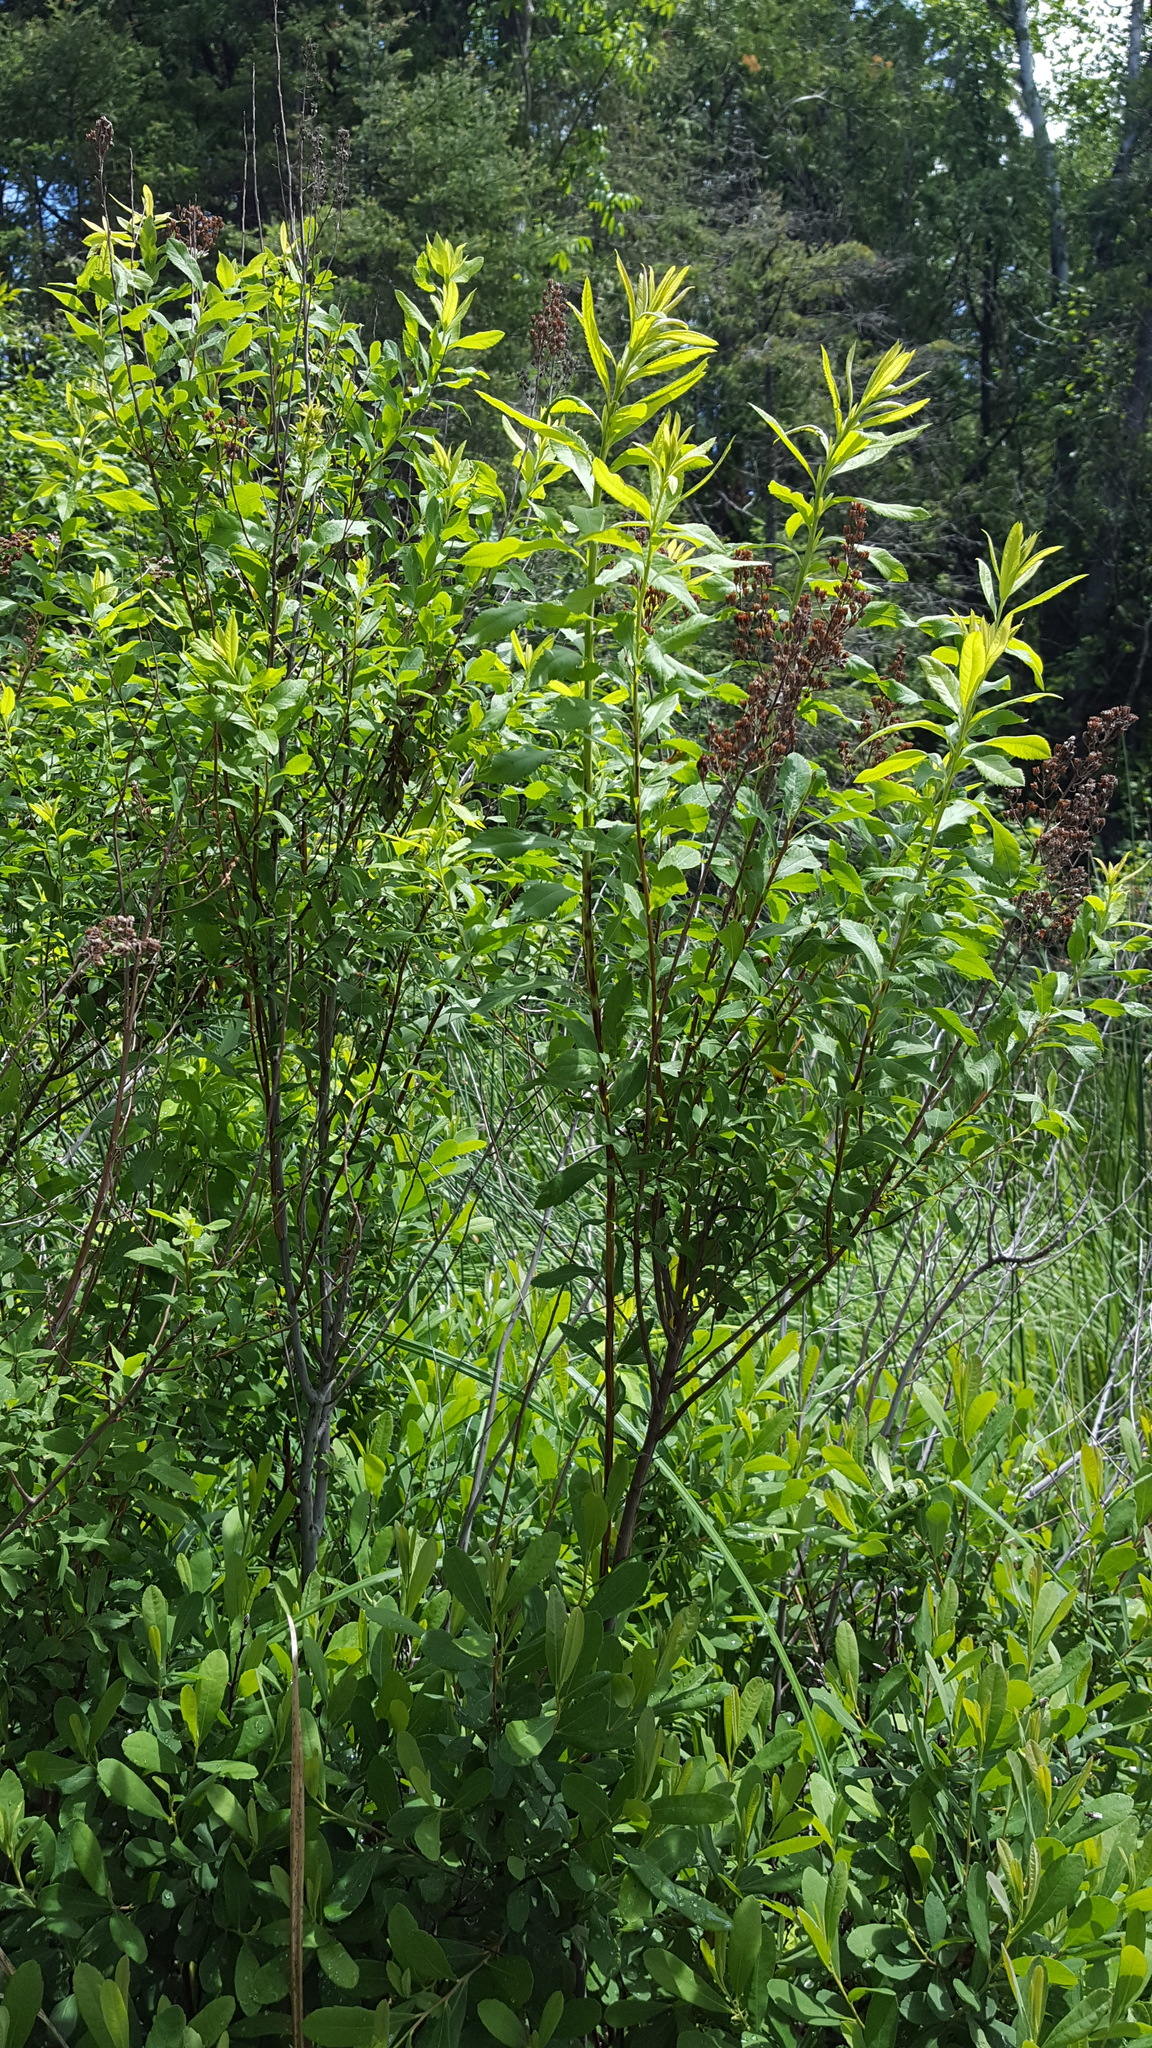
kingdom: Plantae
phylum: Tracheophyta
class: Magnoliopsida
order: Rosales
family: Rosaceae
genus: Spiraea
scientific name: Spiraea alba
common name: Pale bridewort
